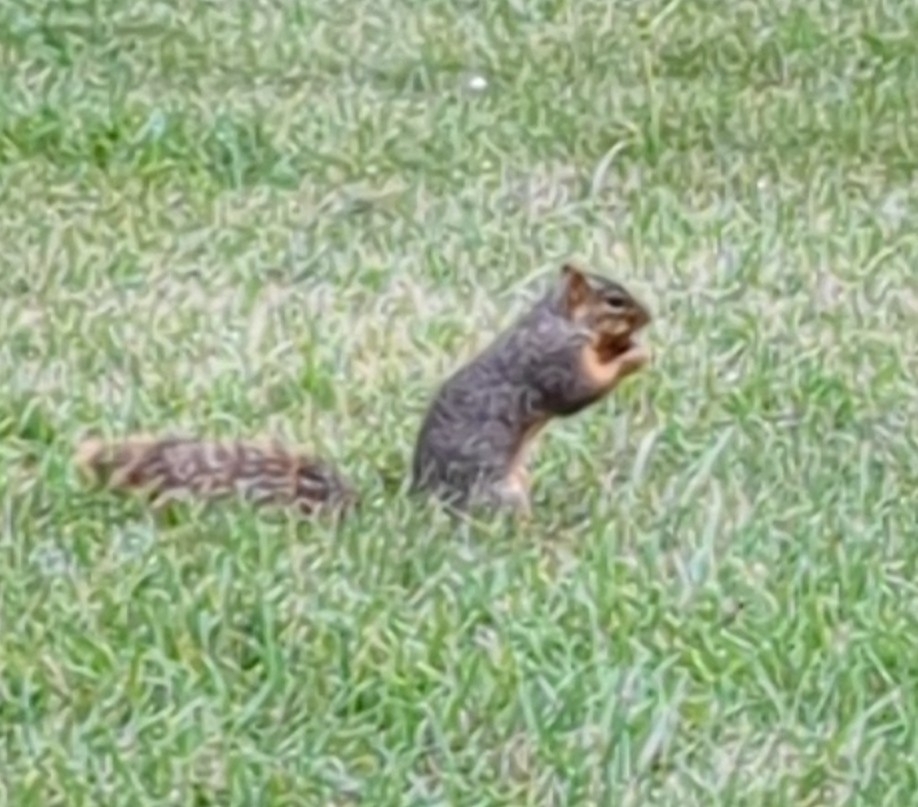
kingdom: Animalia
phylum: Chordata
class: Mammalia
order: Rodentia
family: Sciuridae
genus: Sciurus
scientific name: Sciurus niger
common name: Fox squirrel
